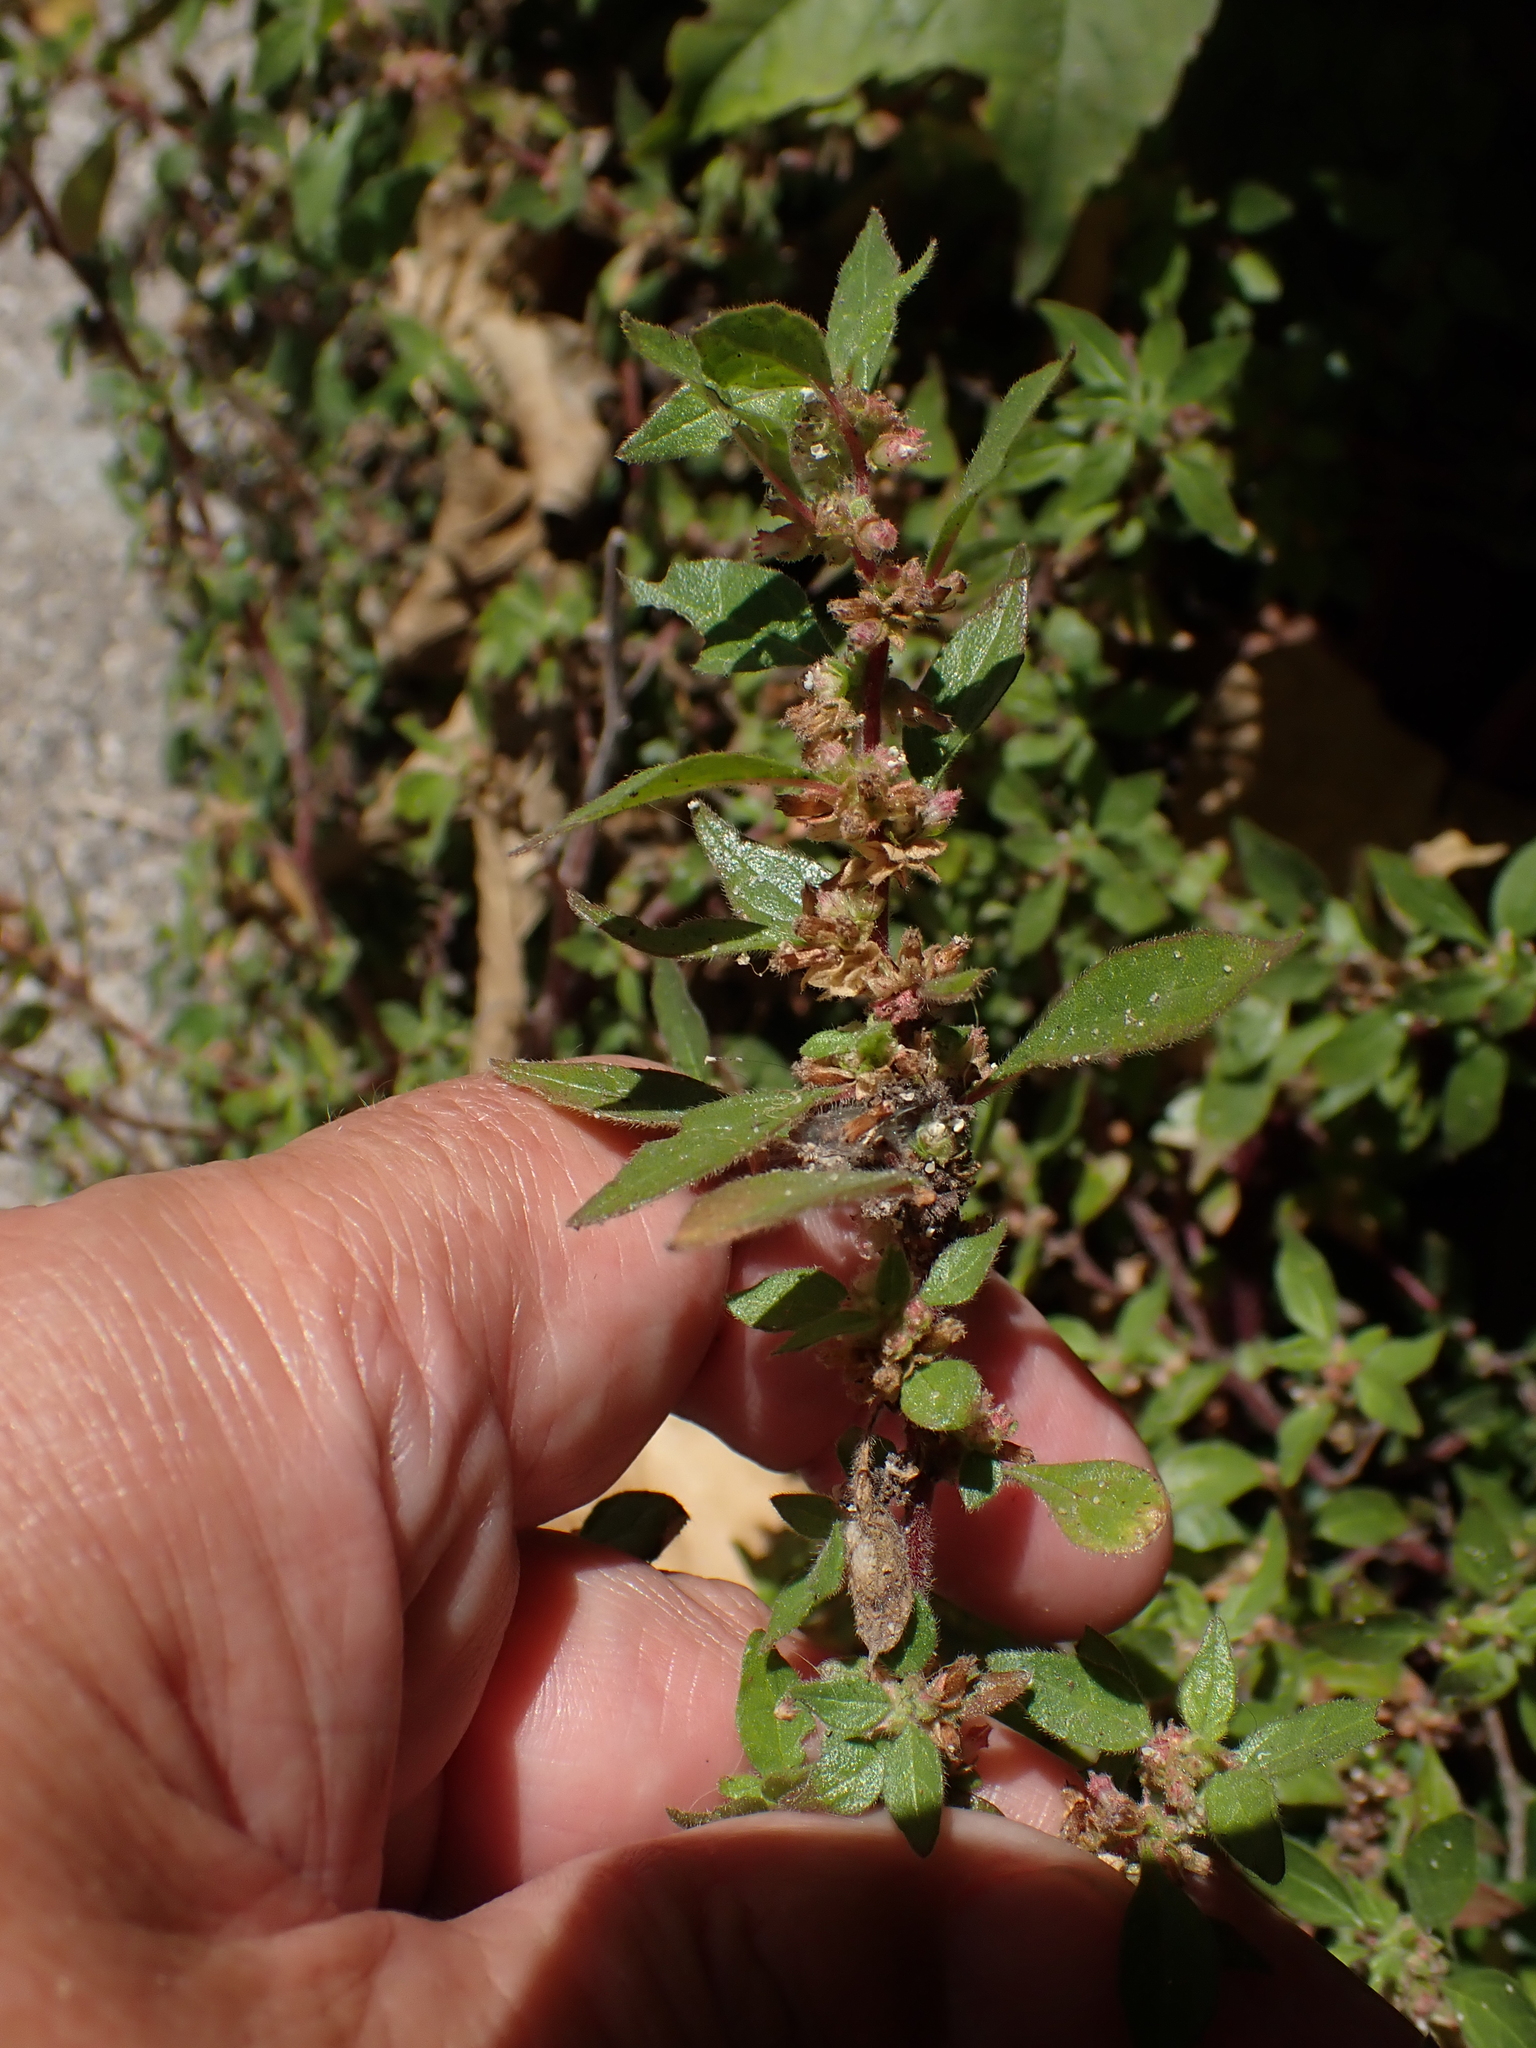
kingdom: Plantae
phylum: Tracheophyta
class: Magnoliopsida
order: Rosales
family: Urticaceae
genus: Parietaria
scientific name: Parietaria judaica
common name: Pellitory-of-the-wall
